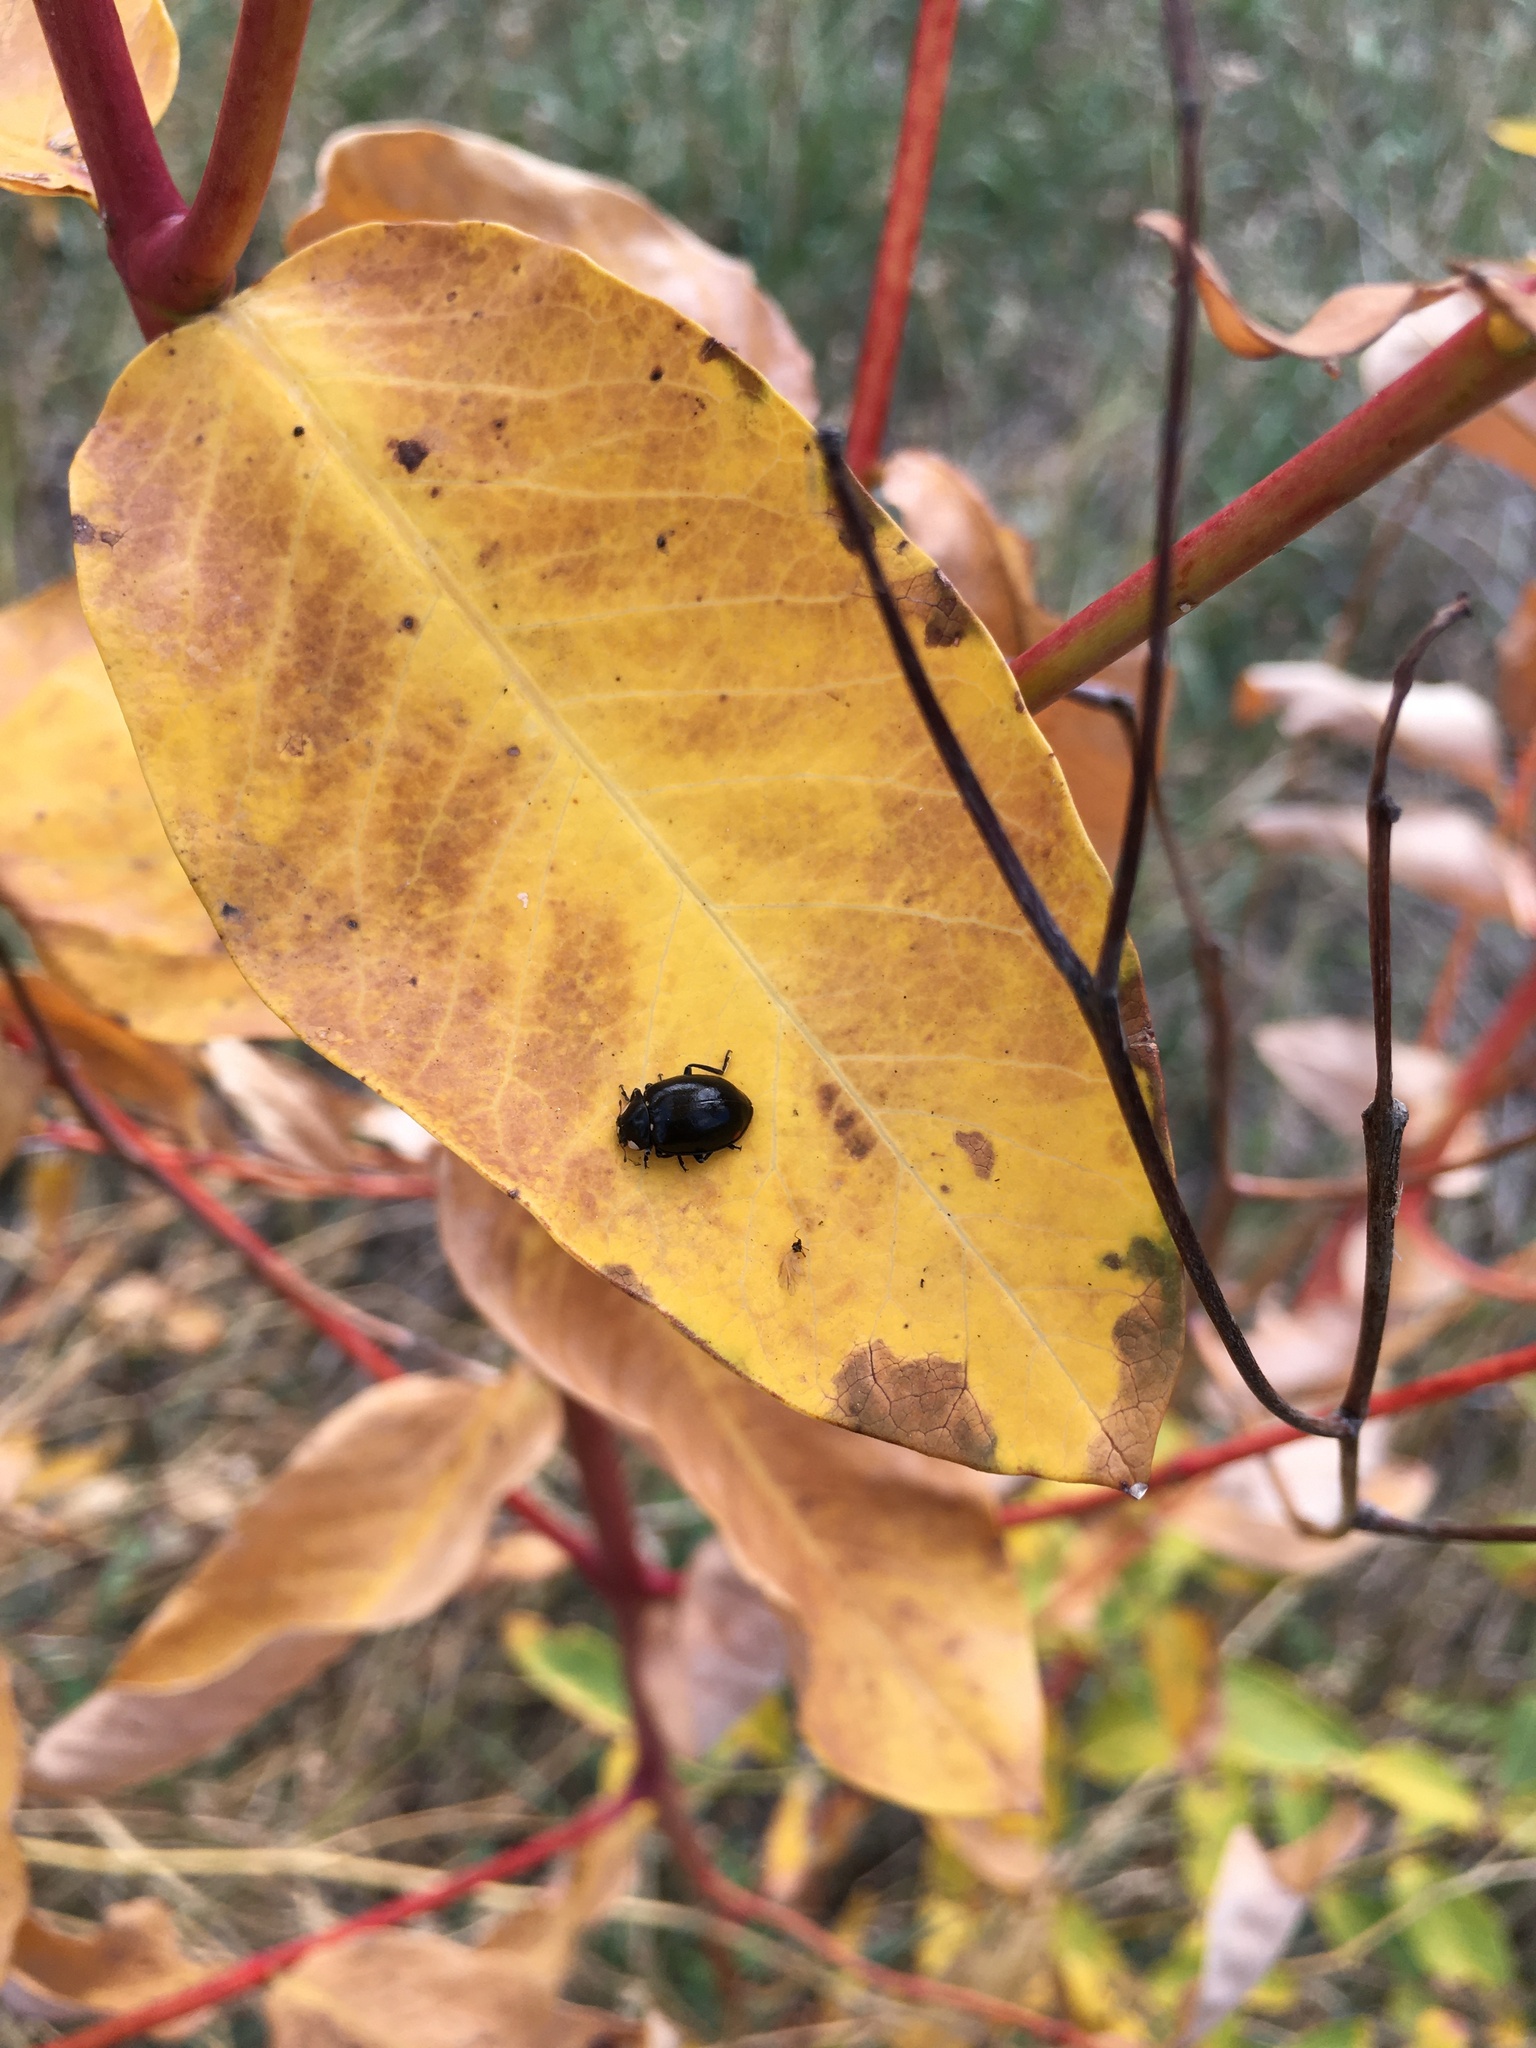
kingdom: Animalia
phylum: Arthropoda
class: Insecta
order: Coleoptera
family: Coccinellidae
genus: Hippodamia
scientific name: Hippodamia moesta
